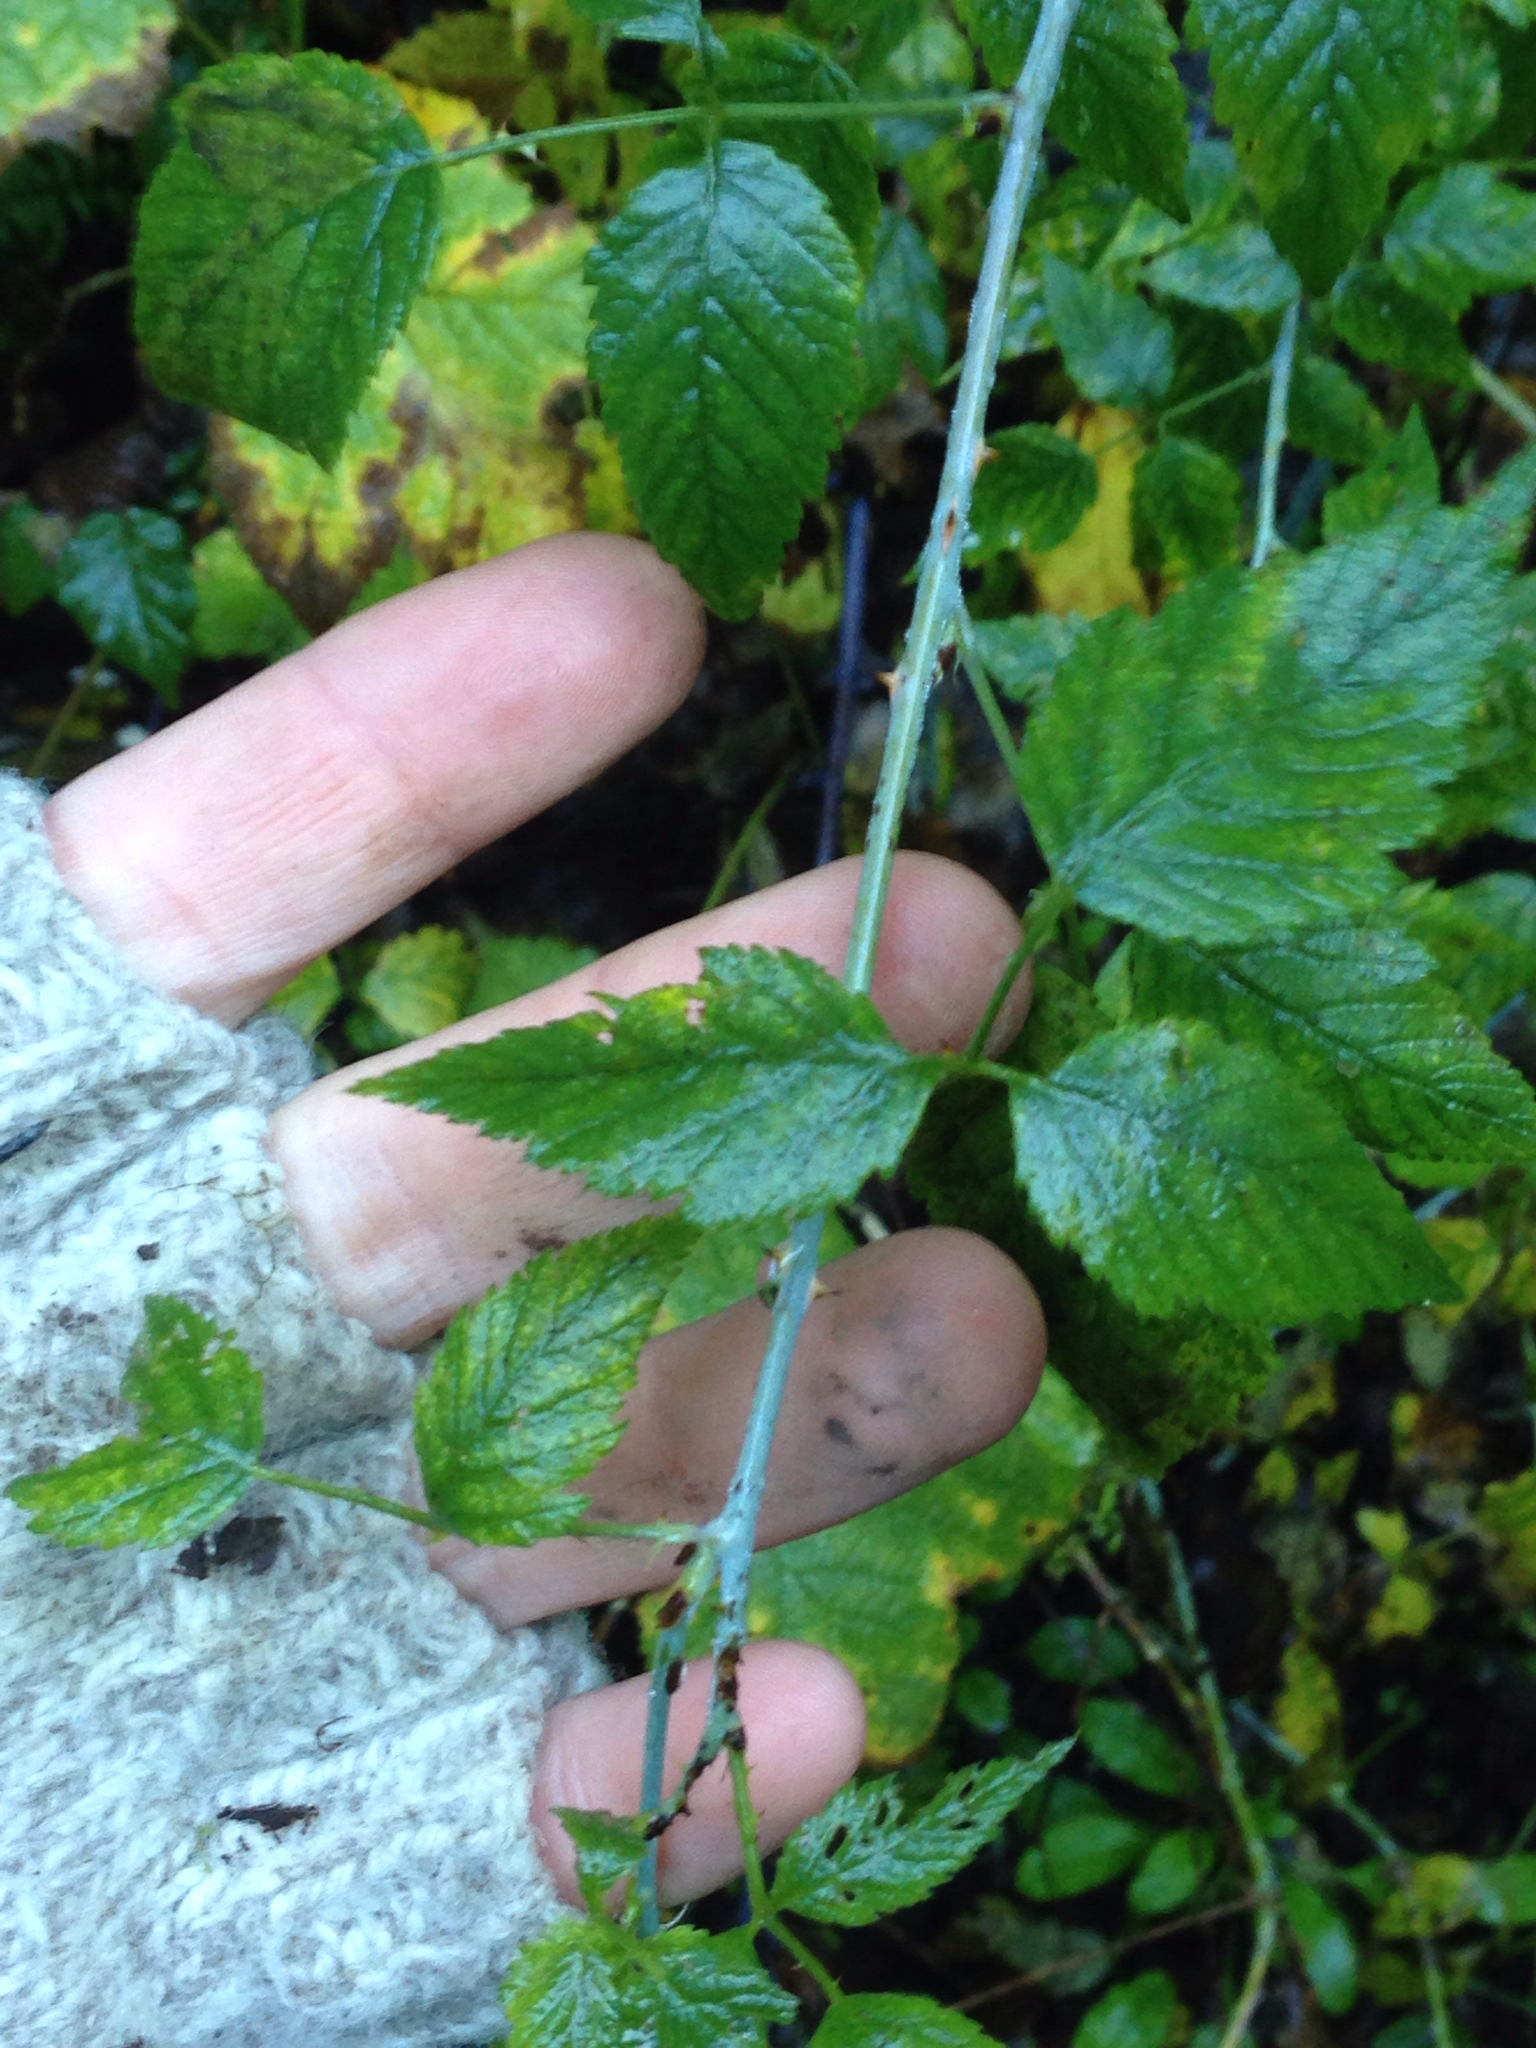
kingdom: Plantae
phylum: Tracheophyta
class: Magnoliopsida
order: Rosales
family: Rosaceae
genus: Rubus
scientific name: Rubus leucodermis
